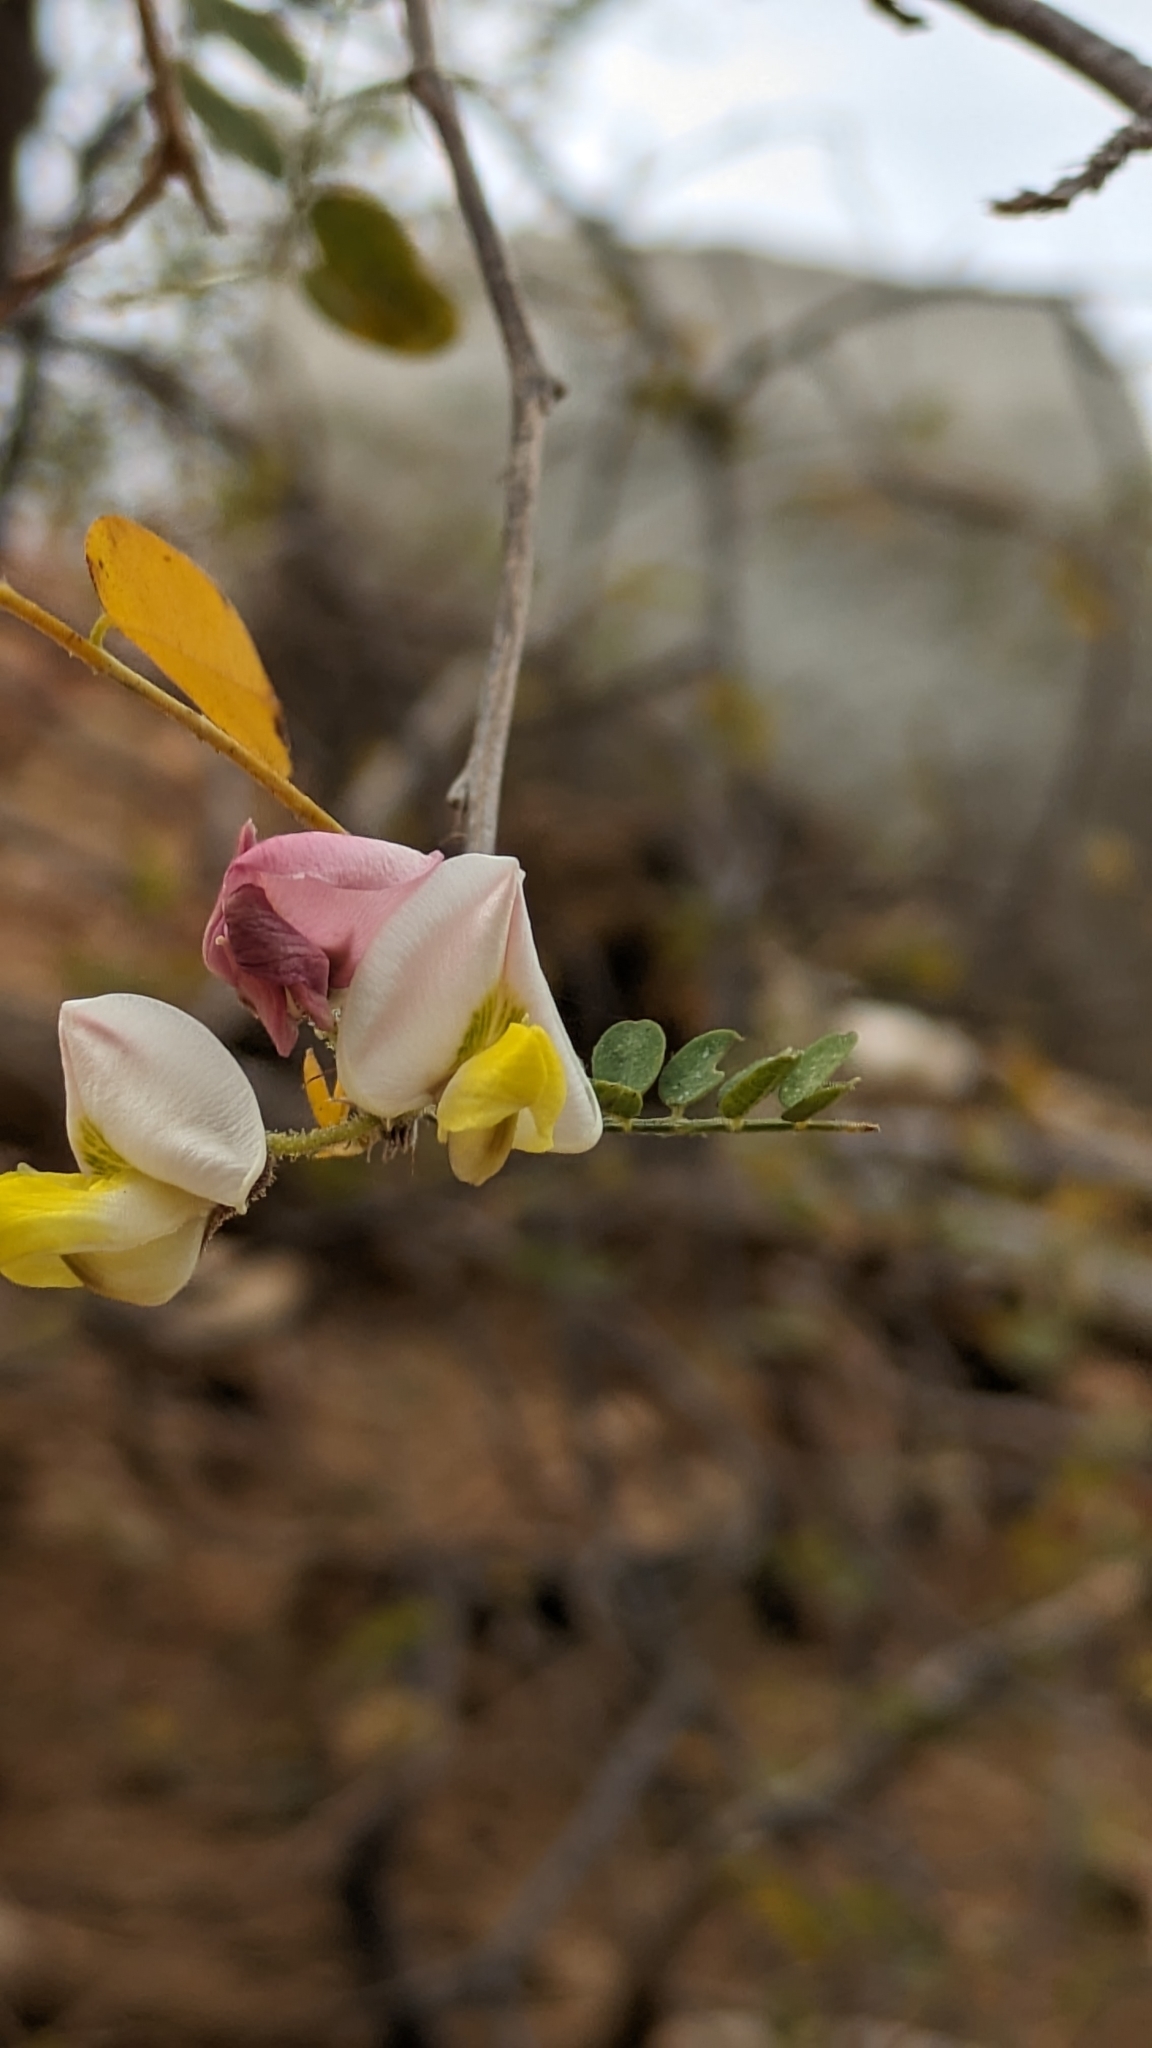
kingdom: Plantae
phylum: Tracheophyta
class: Magnoliopsida
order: Fabales
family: Fabaceae
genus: Coursetia
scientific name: Coursetia glandulosa
